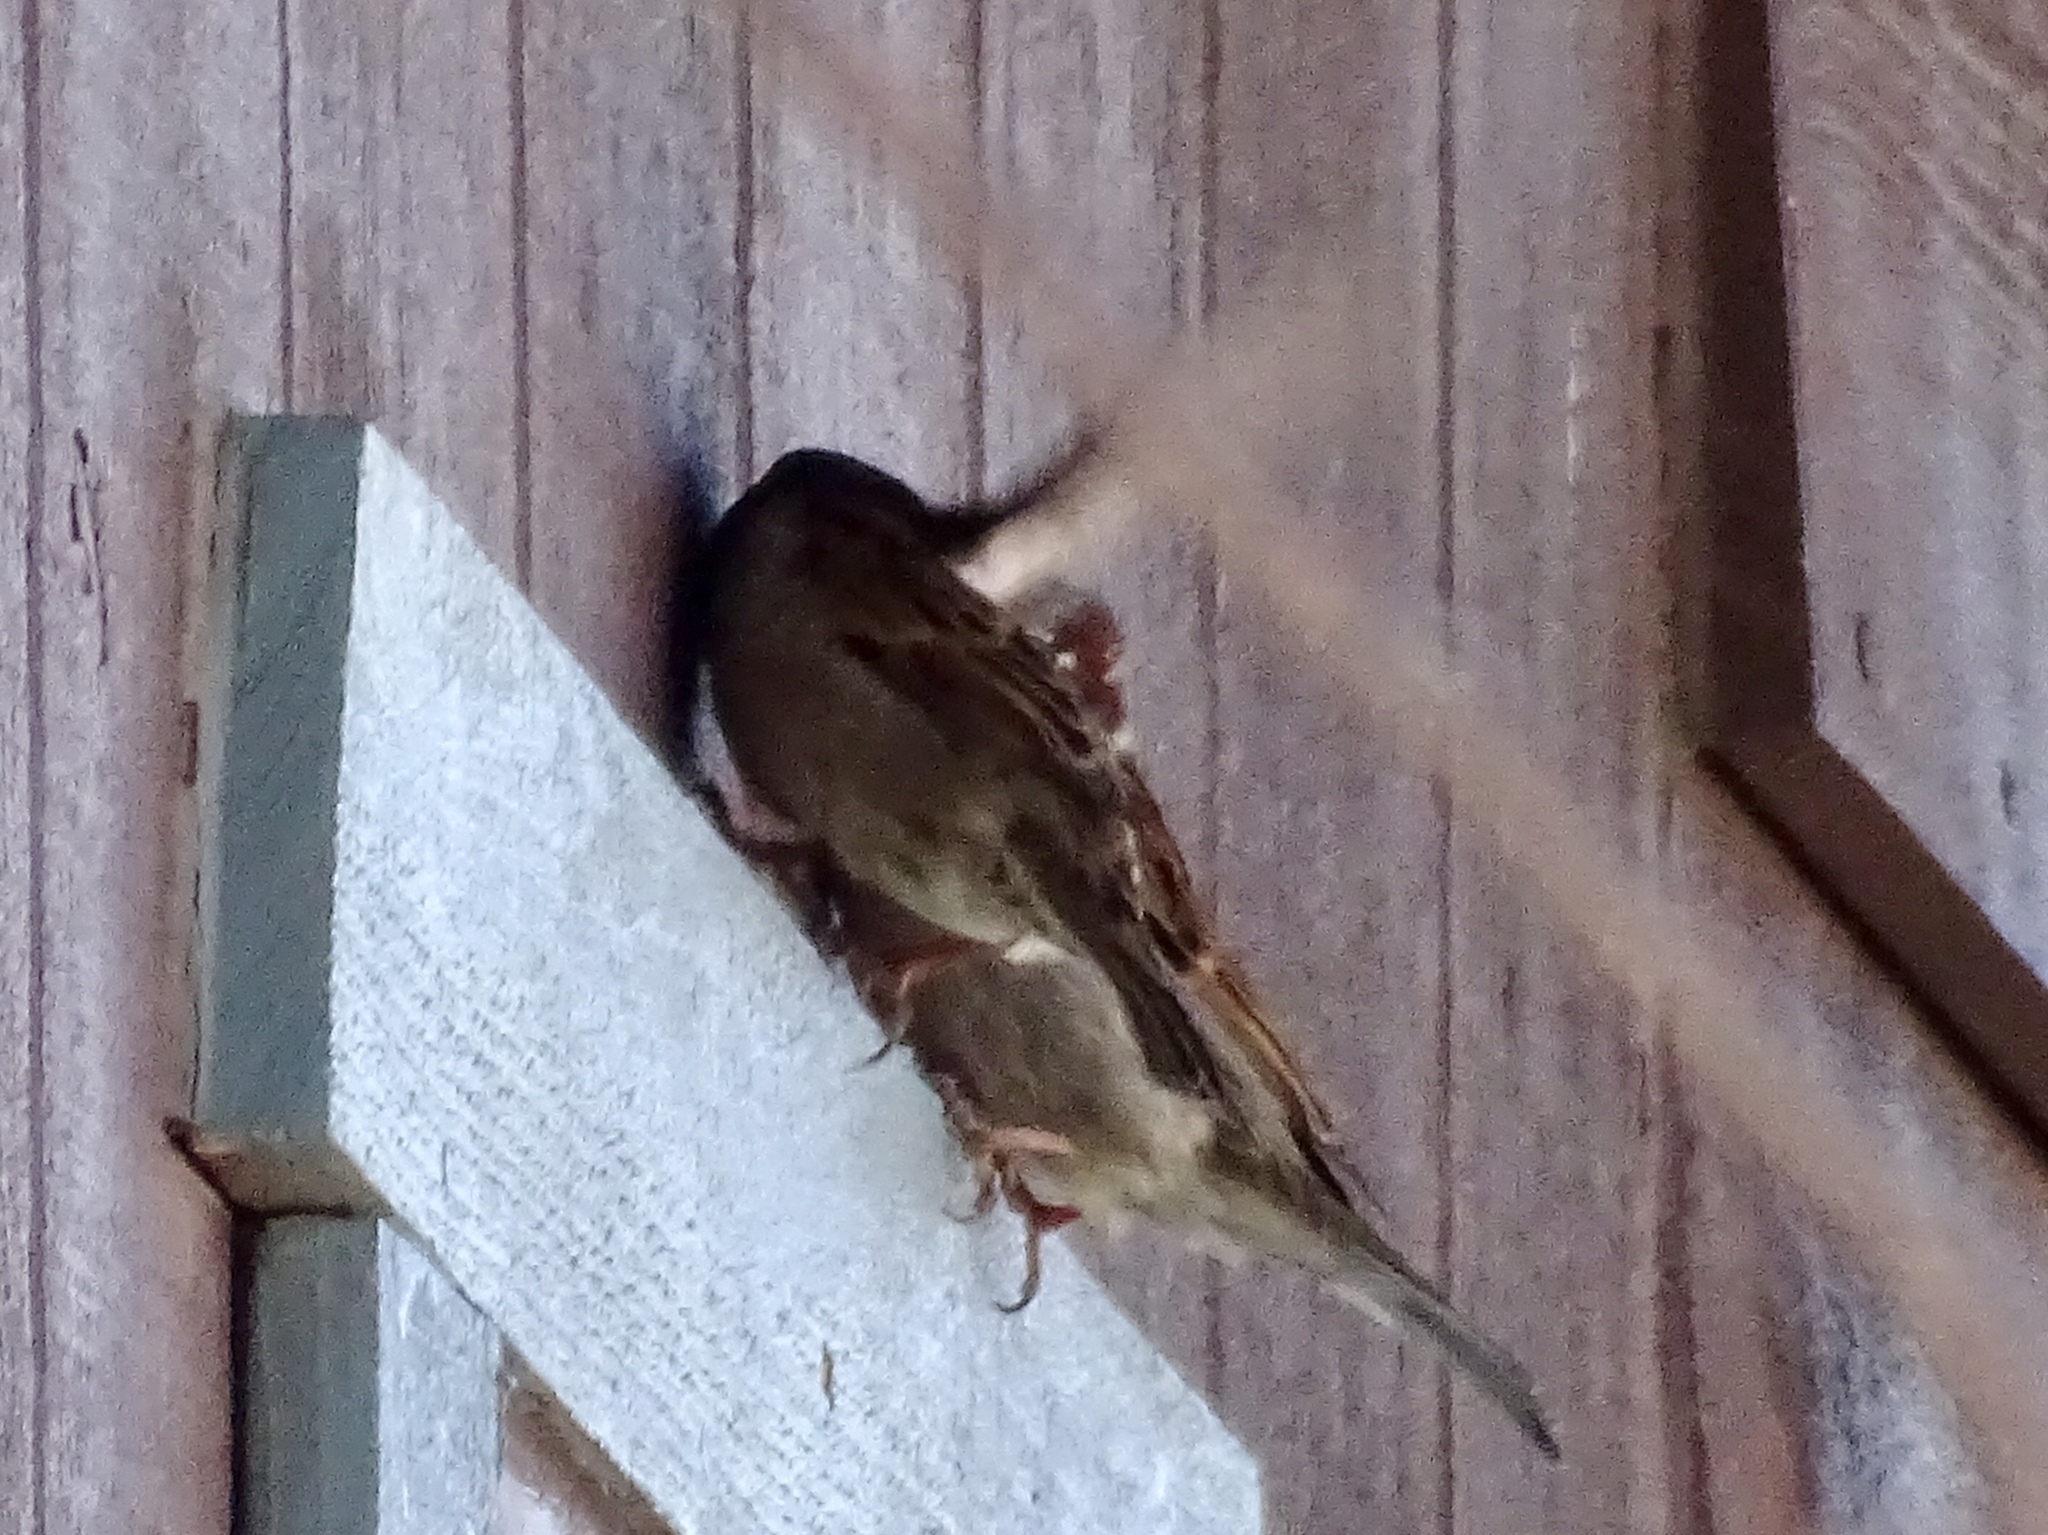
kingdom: Animalia
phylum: Chordata
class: Aves
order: Passeriformes
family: Passeridae
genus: Passer
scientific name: Passer domesticus
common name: House sparrow
